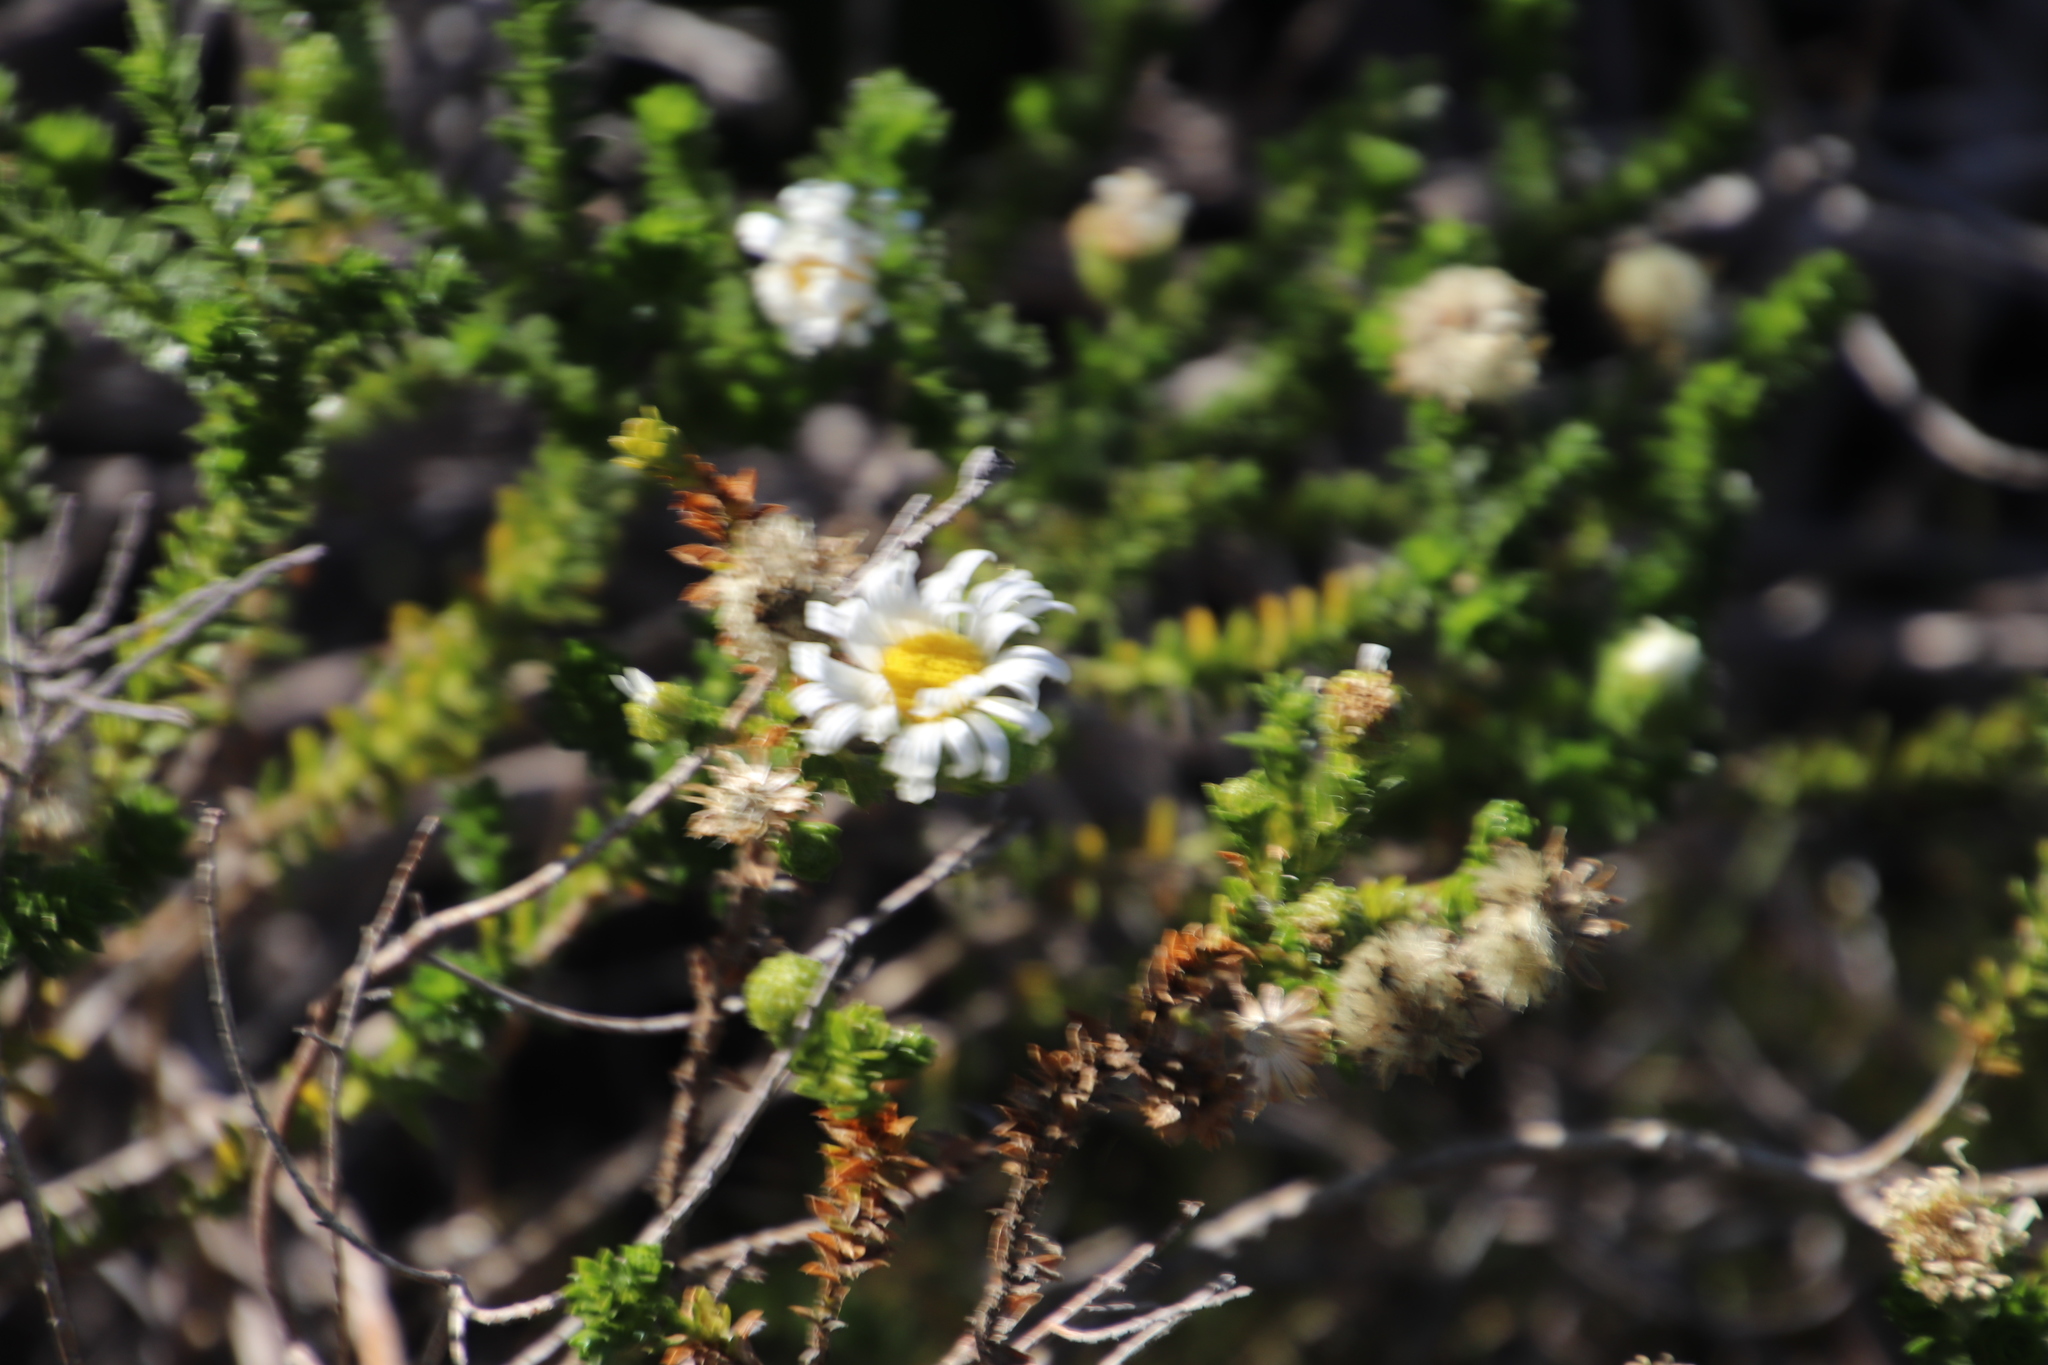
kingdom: Plantae
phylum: Tracheophyta
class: Magnoliopsida
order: Asterales
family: Asteraceae
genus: Polyarrhena
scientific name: Polyarrhena reflexa
